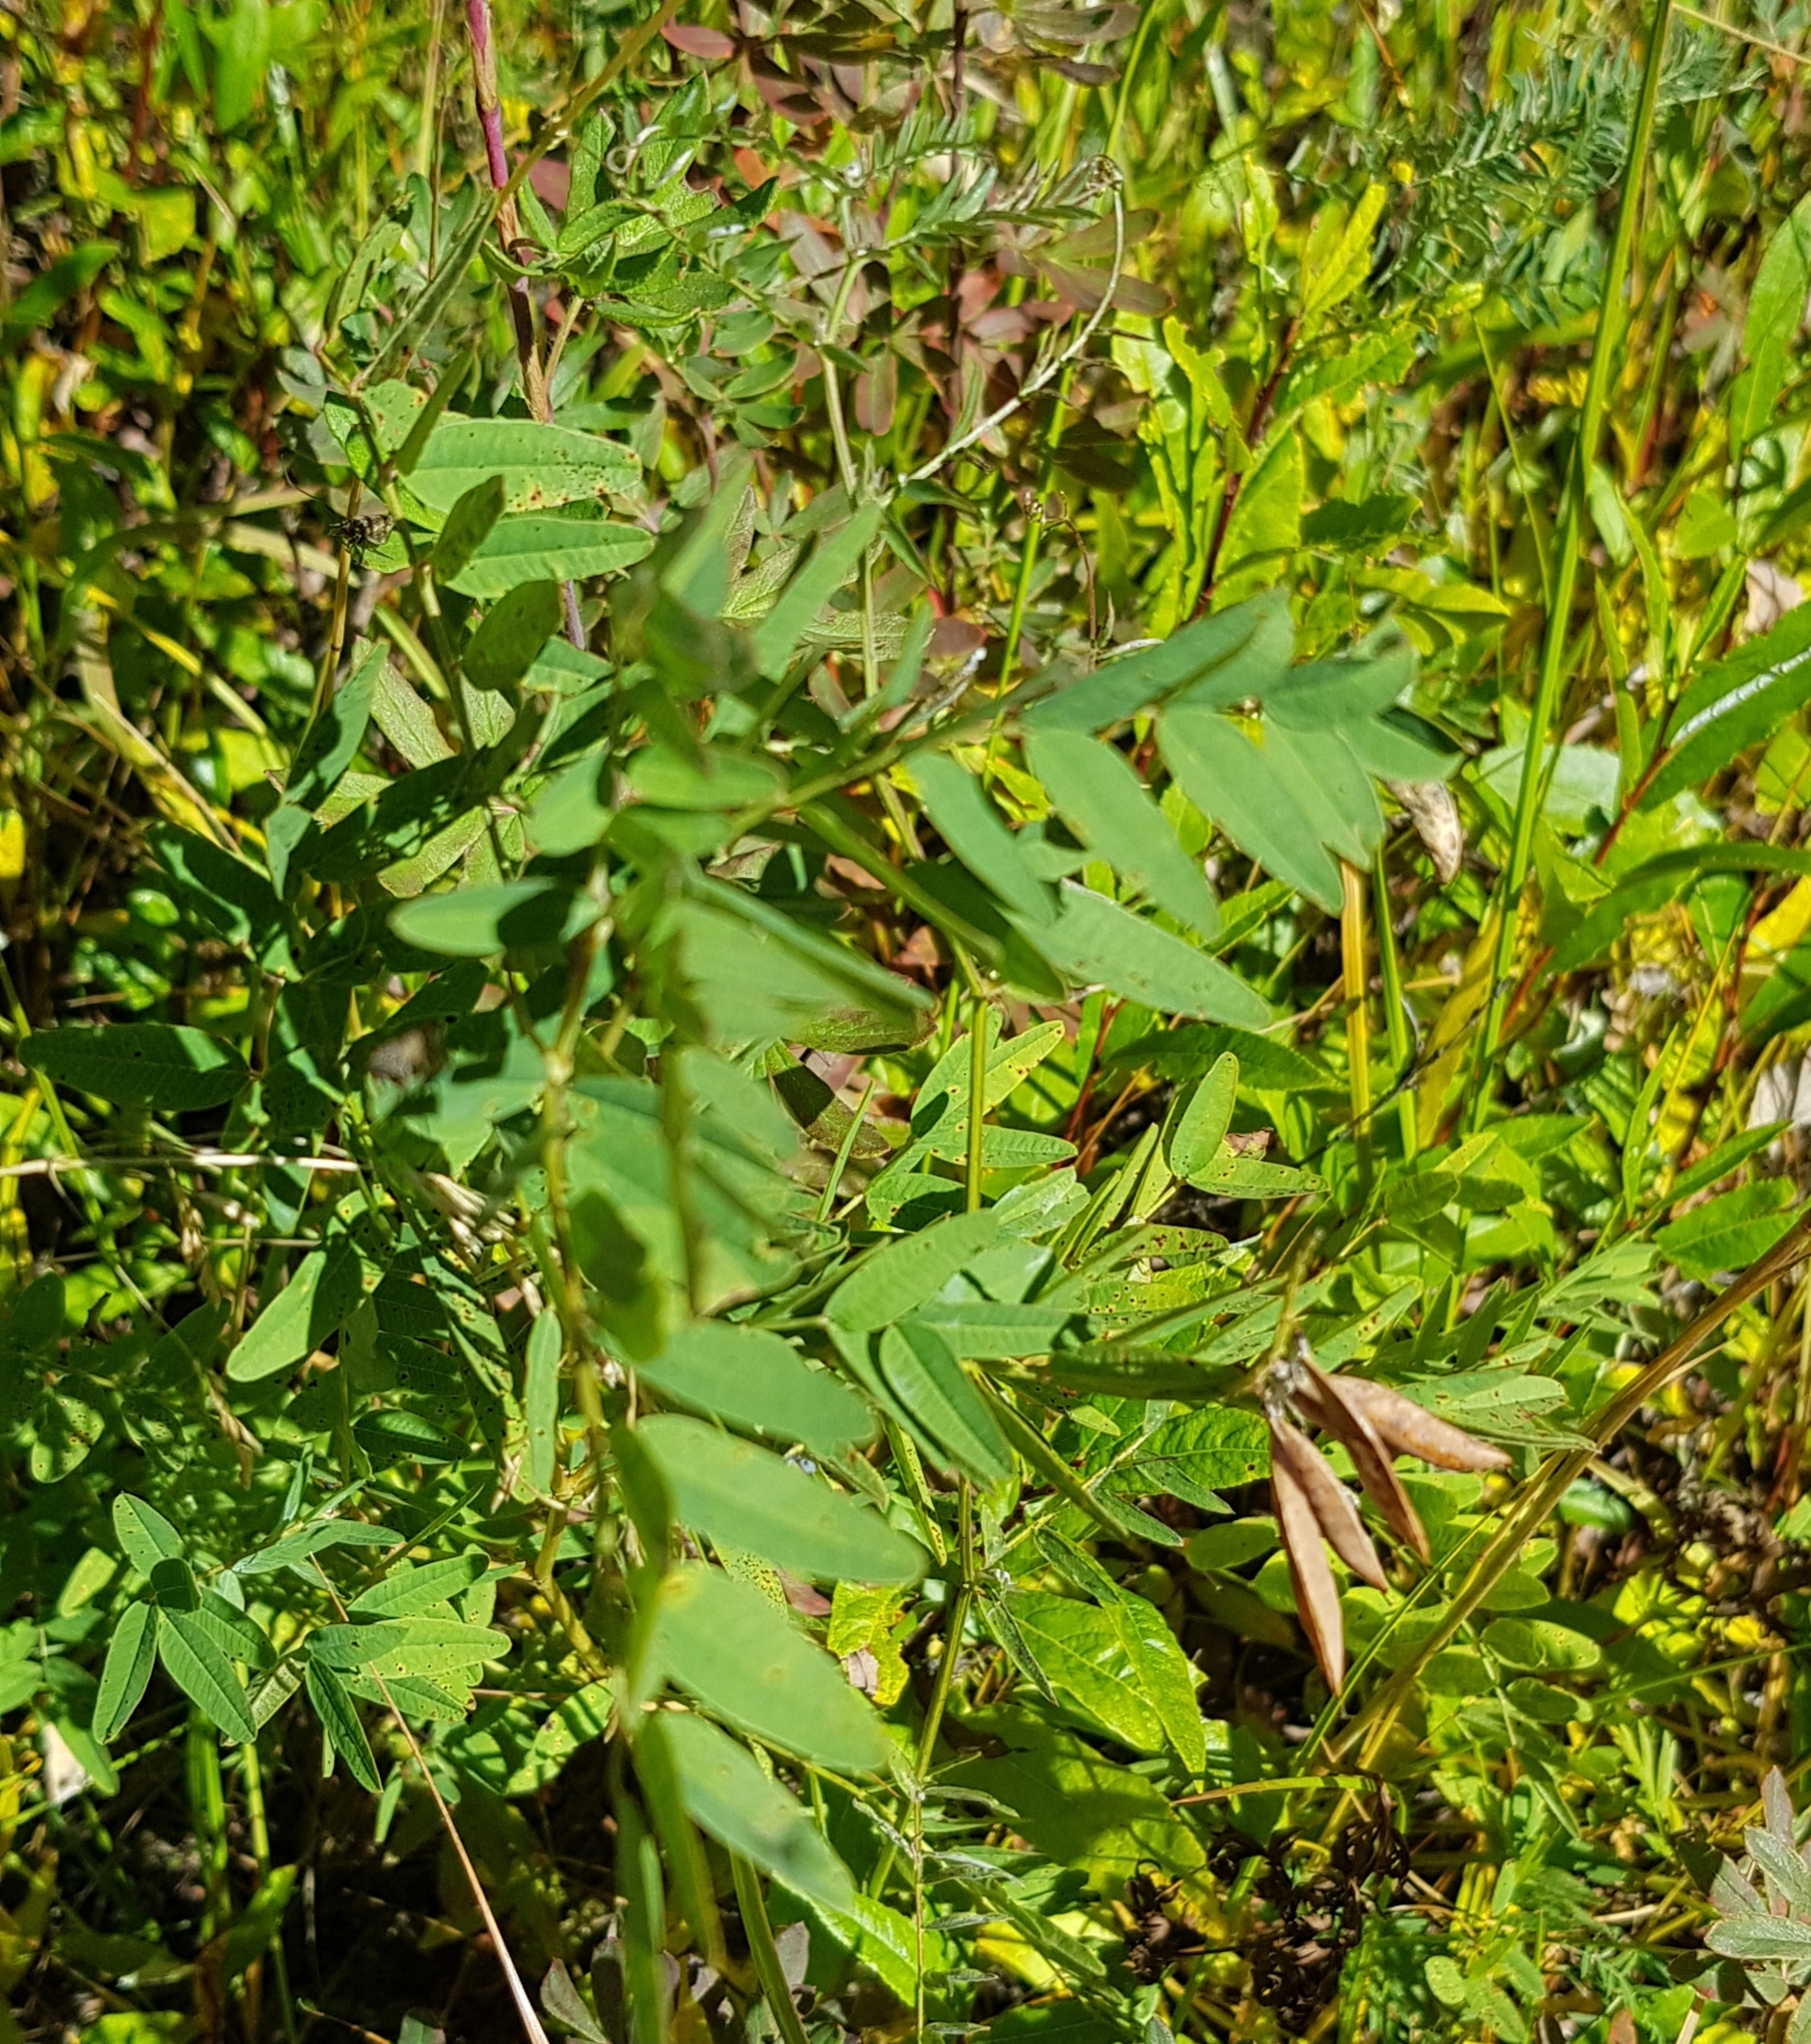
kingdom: Plantae
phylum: Tracheophyta
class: Magnoliopsida
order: Fabales
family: Fabaceae
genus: Hedysarum
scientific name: Hedysarum alpinum
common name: Alpine sweet-vetch
